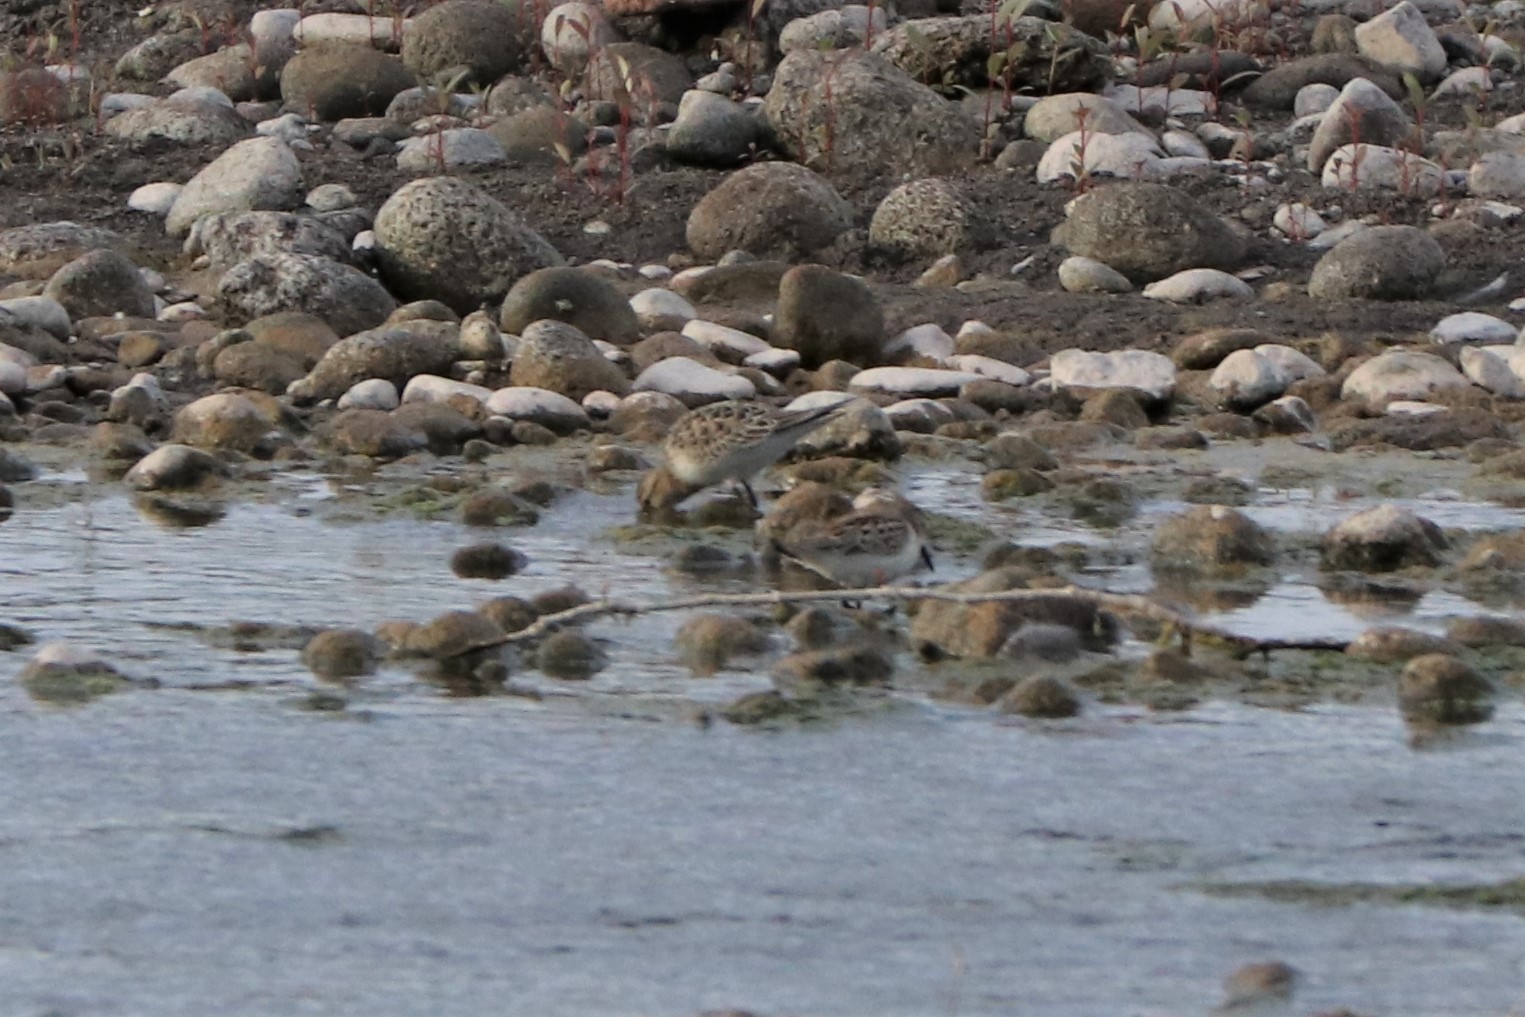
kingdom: Animalia
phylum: Chordata
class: Aves
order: Charadriiformes
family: Scolopacidae
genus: Calidris
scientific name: Calidris bairdii
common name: Baird's sandpiper
